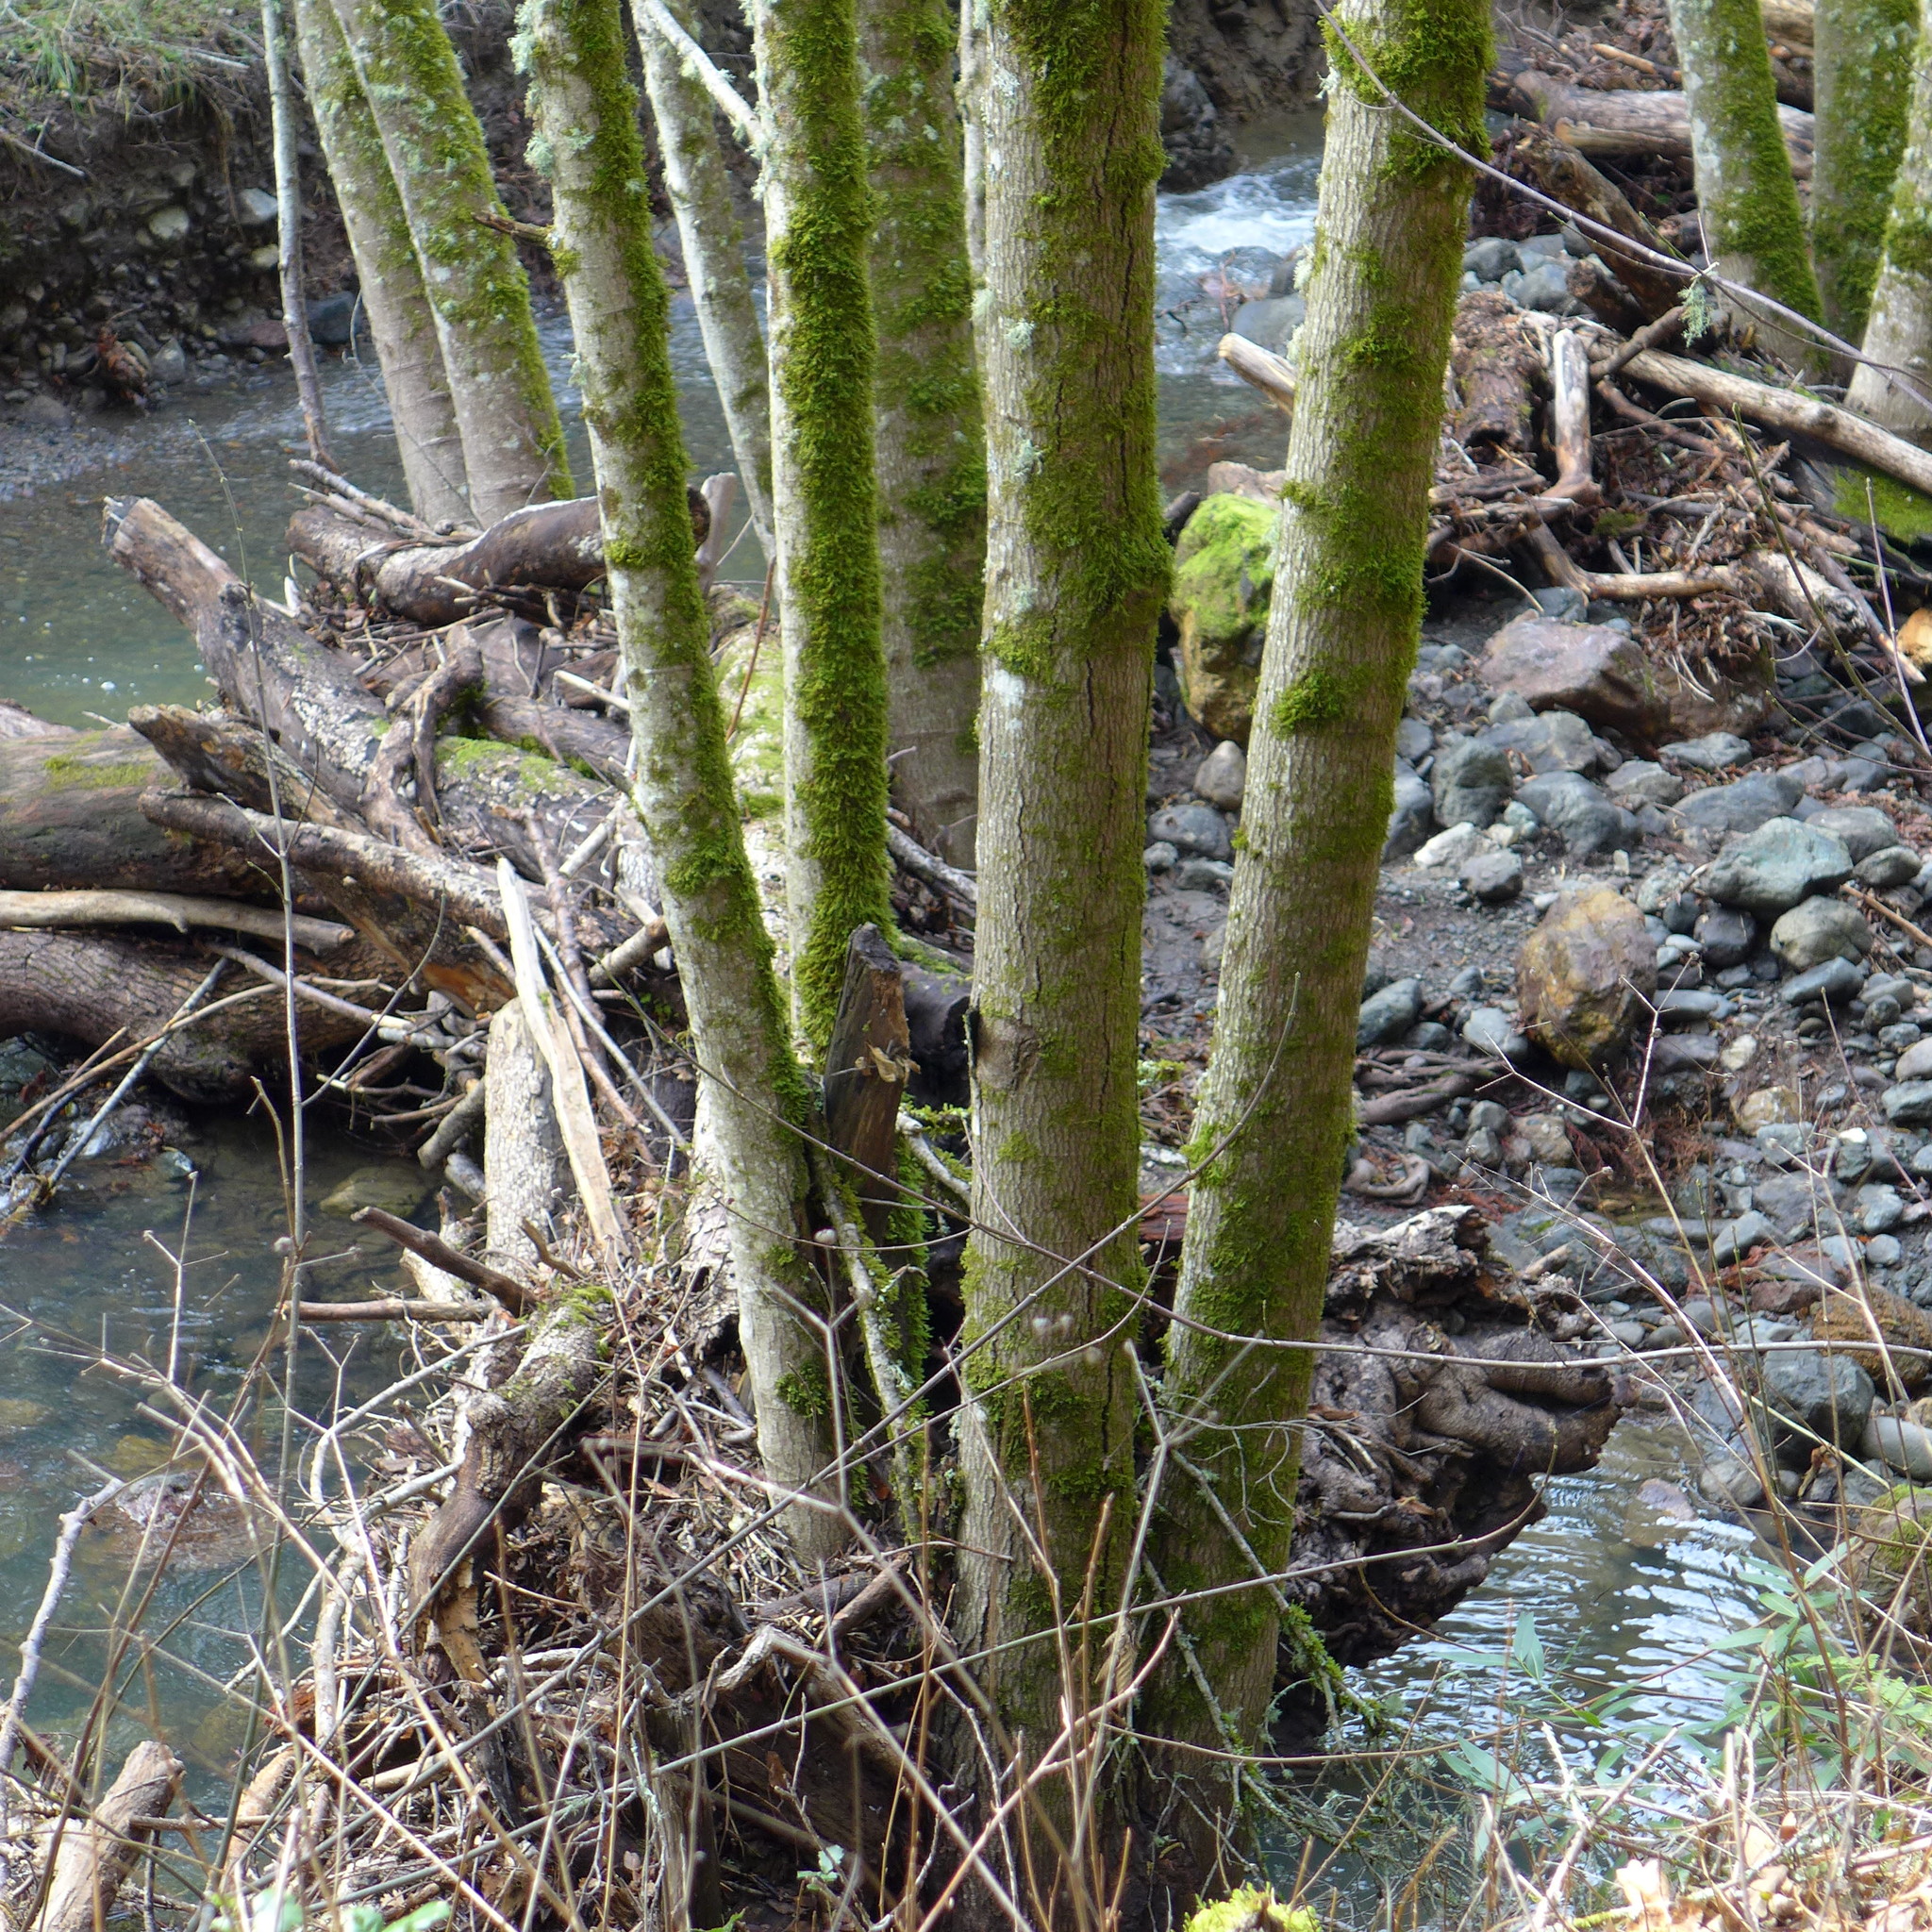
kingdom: Plantae
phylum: Tracheophyta
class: Magnoliopsida
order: Fagales
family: Betulaceae
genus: Alnus
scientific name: Alnus rhombifolia
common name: California alder
